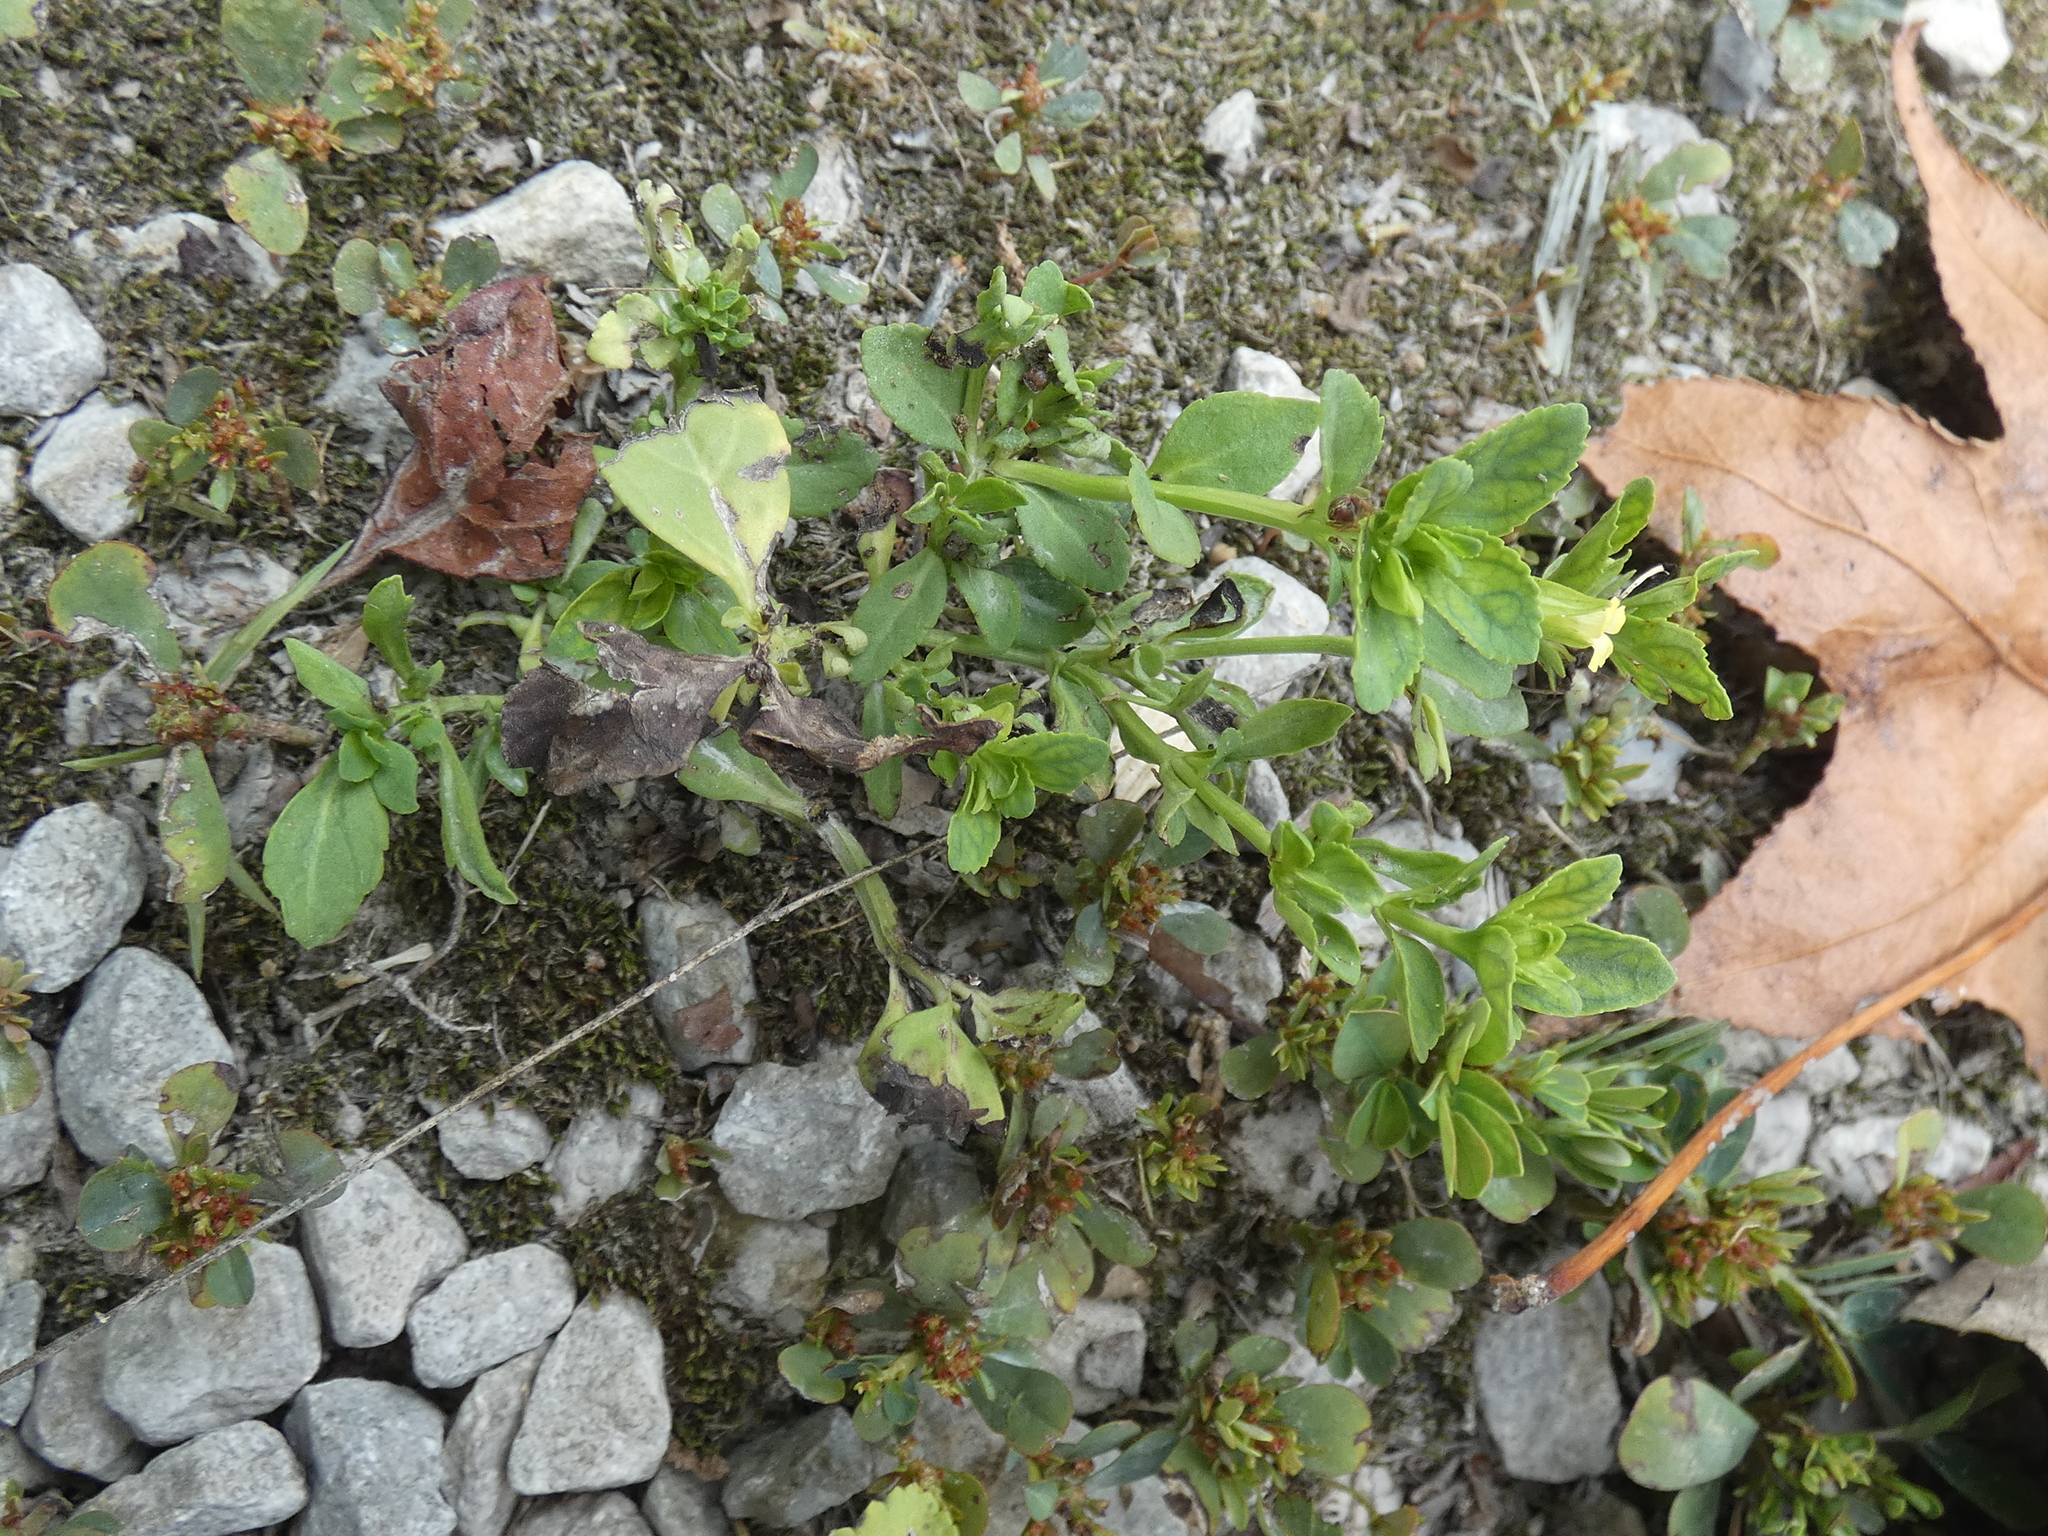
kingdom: Plantae
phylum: Tracheophyta
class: Magnoliopsida
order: Lamiales
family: Plantaginaceae
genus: Mecardonia
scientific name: Mecardonia procumbens
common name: Baby jump-up
